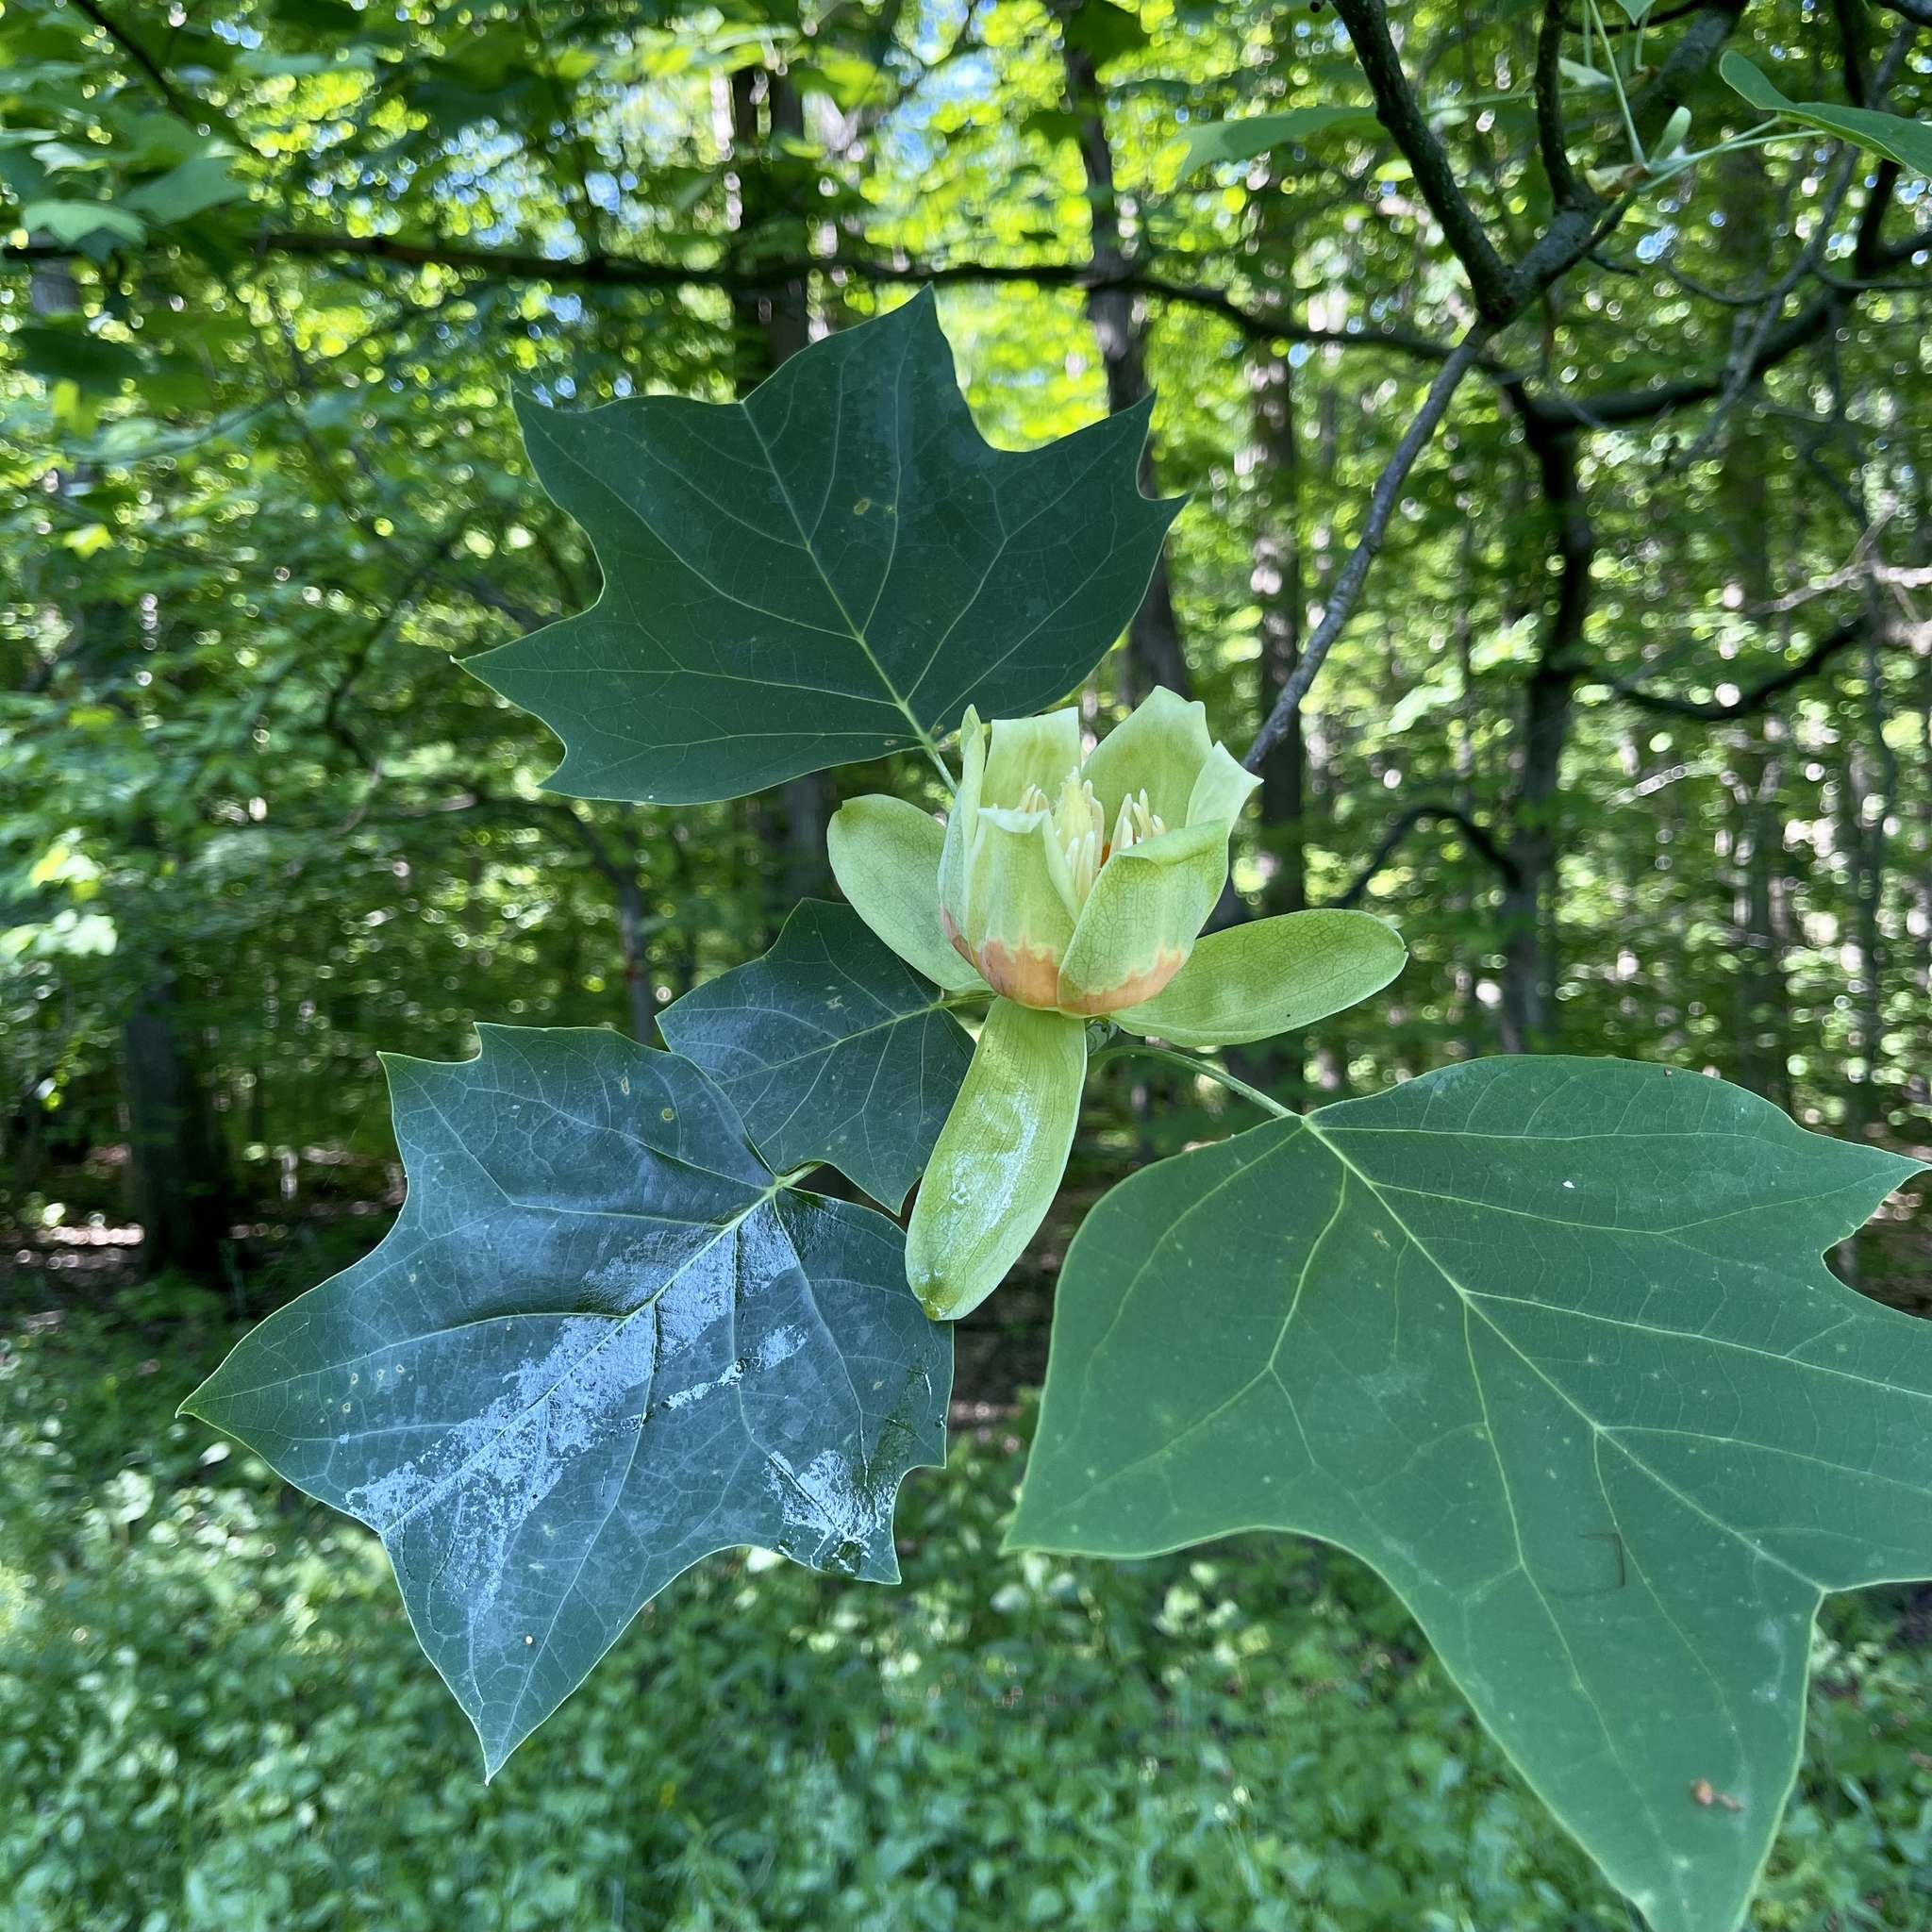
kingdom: Plantae
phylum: Tracheophyta
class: Magnoliopsida
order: Magnoliales
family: Magnoliaceae
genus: Liriodendron
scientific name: Liriodendron tulipifera
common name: Tulip tree
